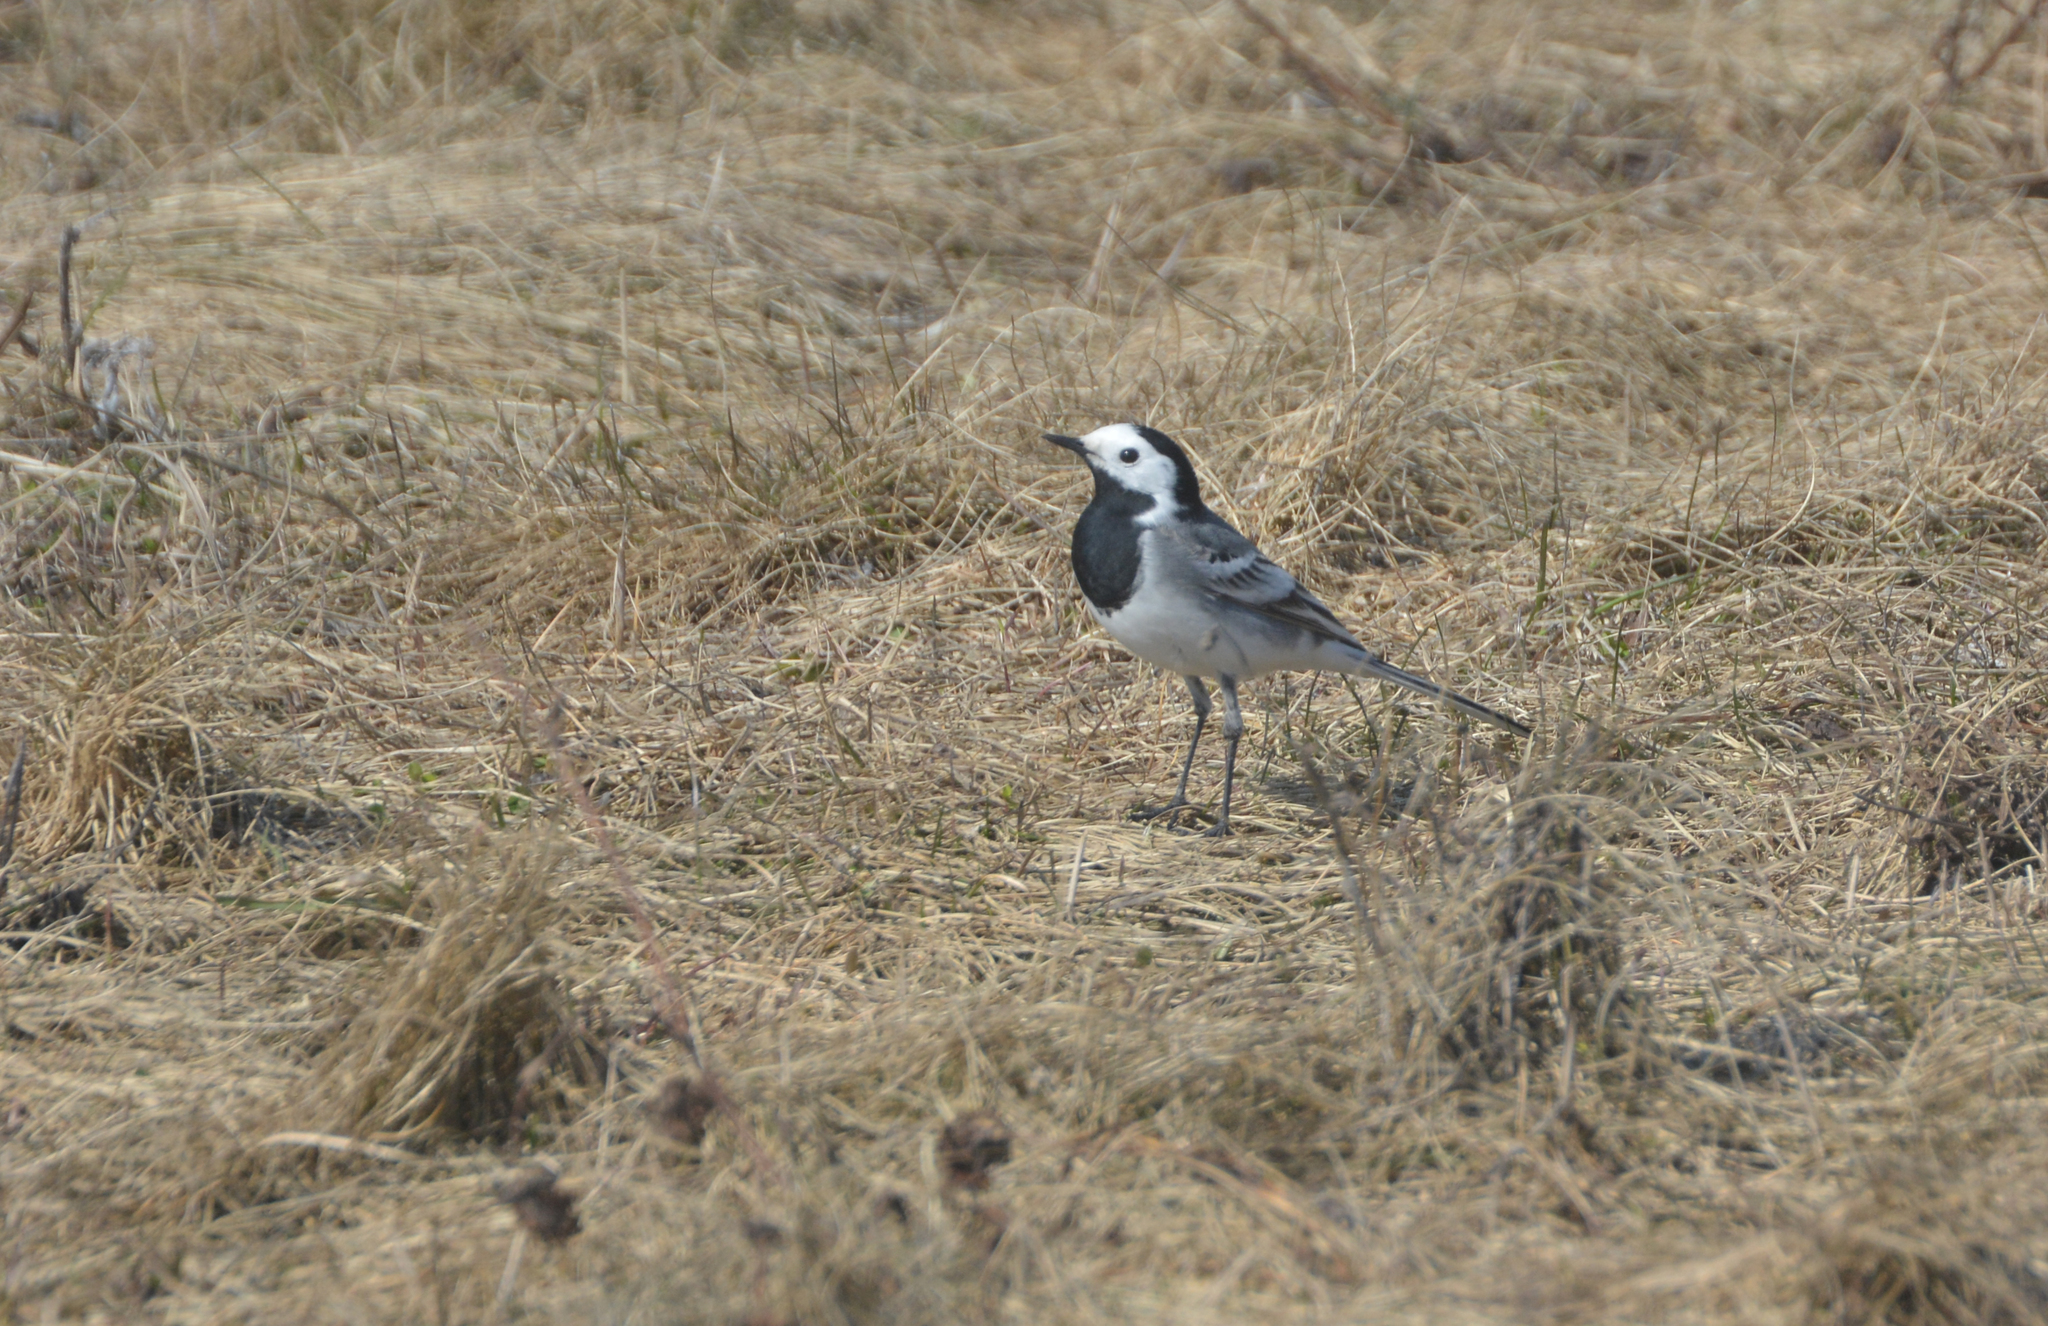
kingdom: Animalia
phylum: Chordata
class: Aves
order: Passeriformes
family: Motacillidae
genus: Motacilla
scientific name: Motacilla alba
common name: White wagtail
